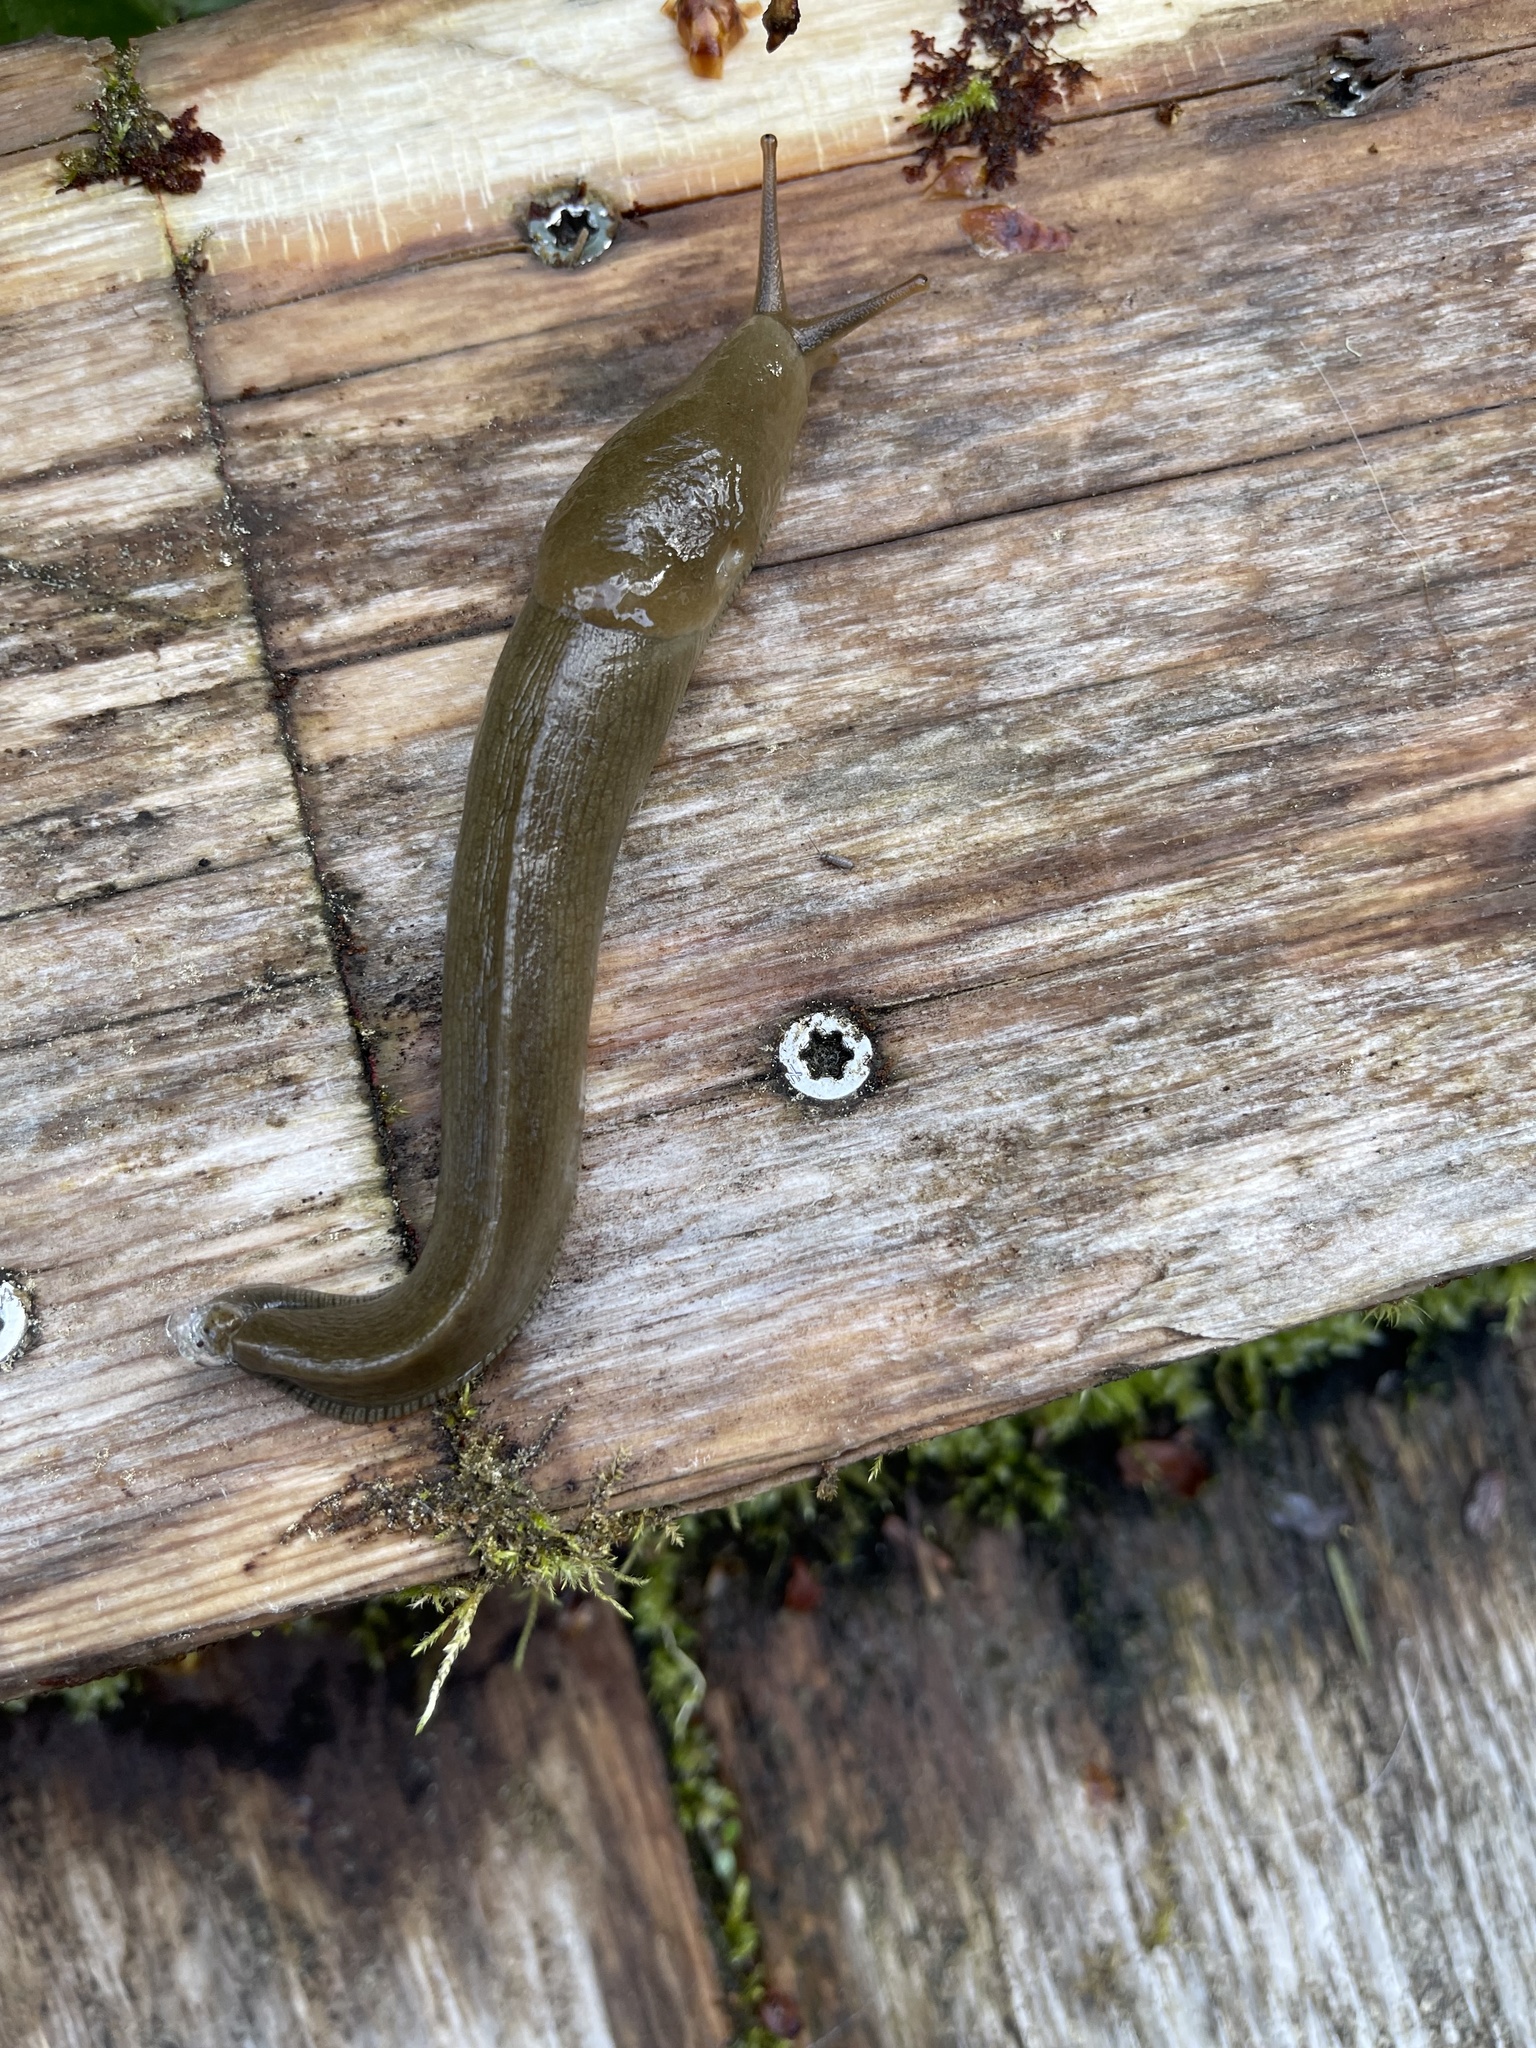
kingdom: Animalia
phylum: Mollusca
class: Gastropoda
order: Stylommatophora
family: Ariolimacidae
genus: Ariolimax
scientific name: Ariolimax columbianus
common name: Pacific banana slug
